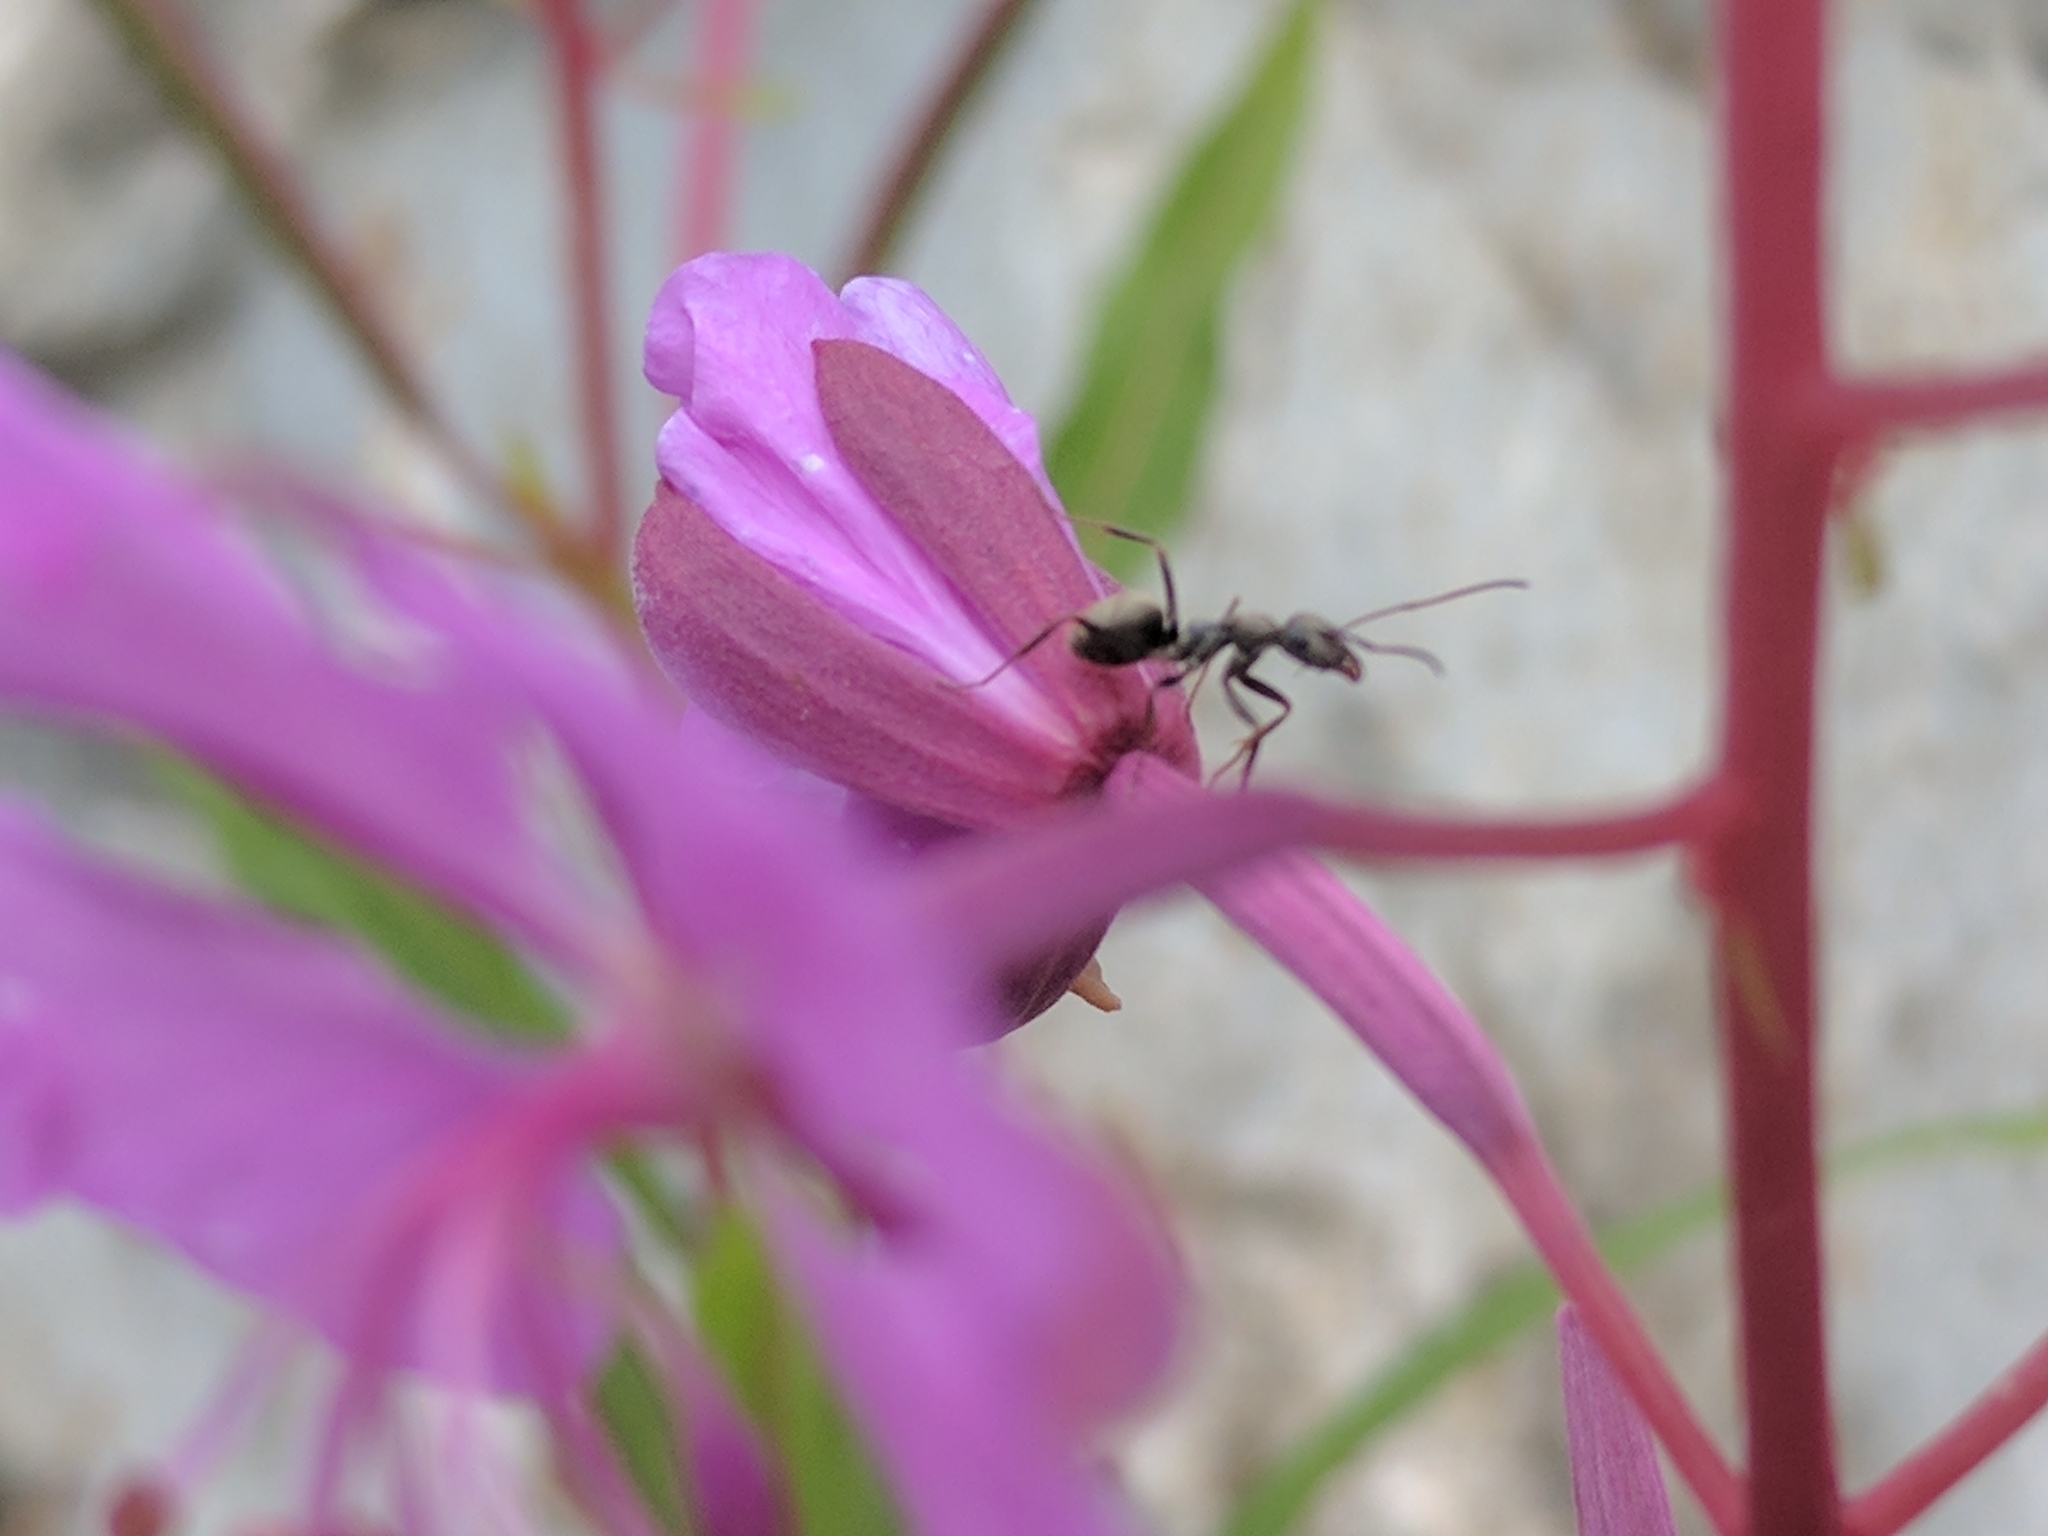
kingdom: Plantae
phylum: Tracheophyta
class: Magnoliopsida
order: Myrtales
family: Onagraceae
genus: Chamaenerion
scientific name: Chamaenerion fleischeri
